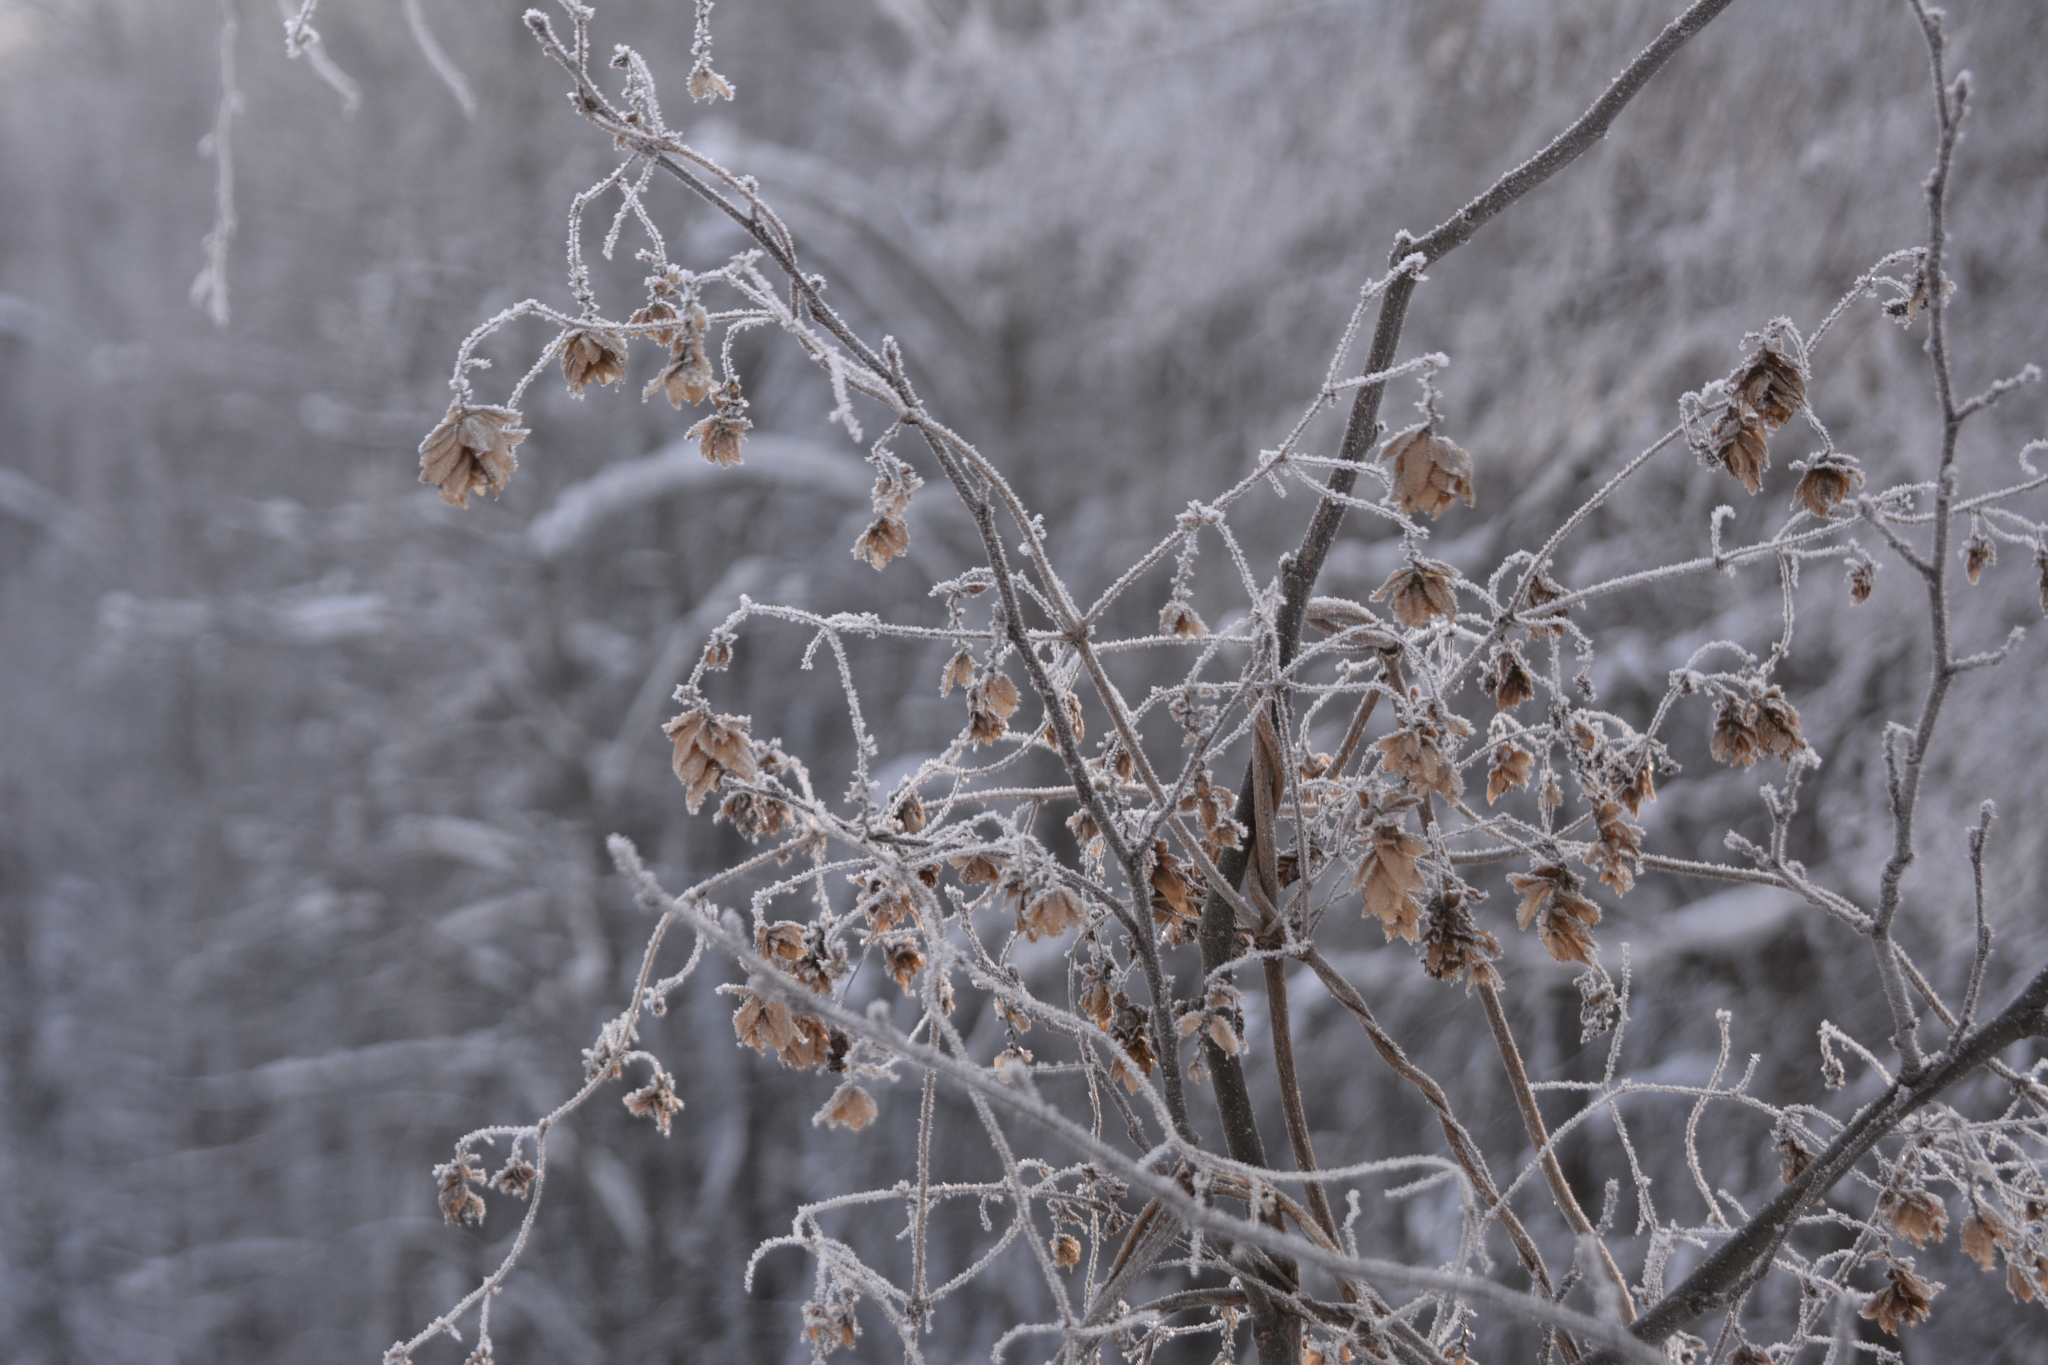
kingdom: Plantae
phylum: Tracheophyta
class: Magnoliopsida
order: Rosales
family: Cannabaceae
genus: Humulus
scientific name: Humulus lupulus
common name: Hop
